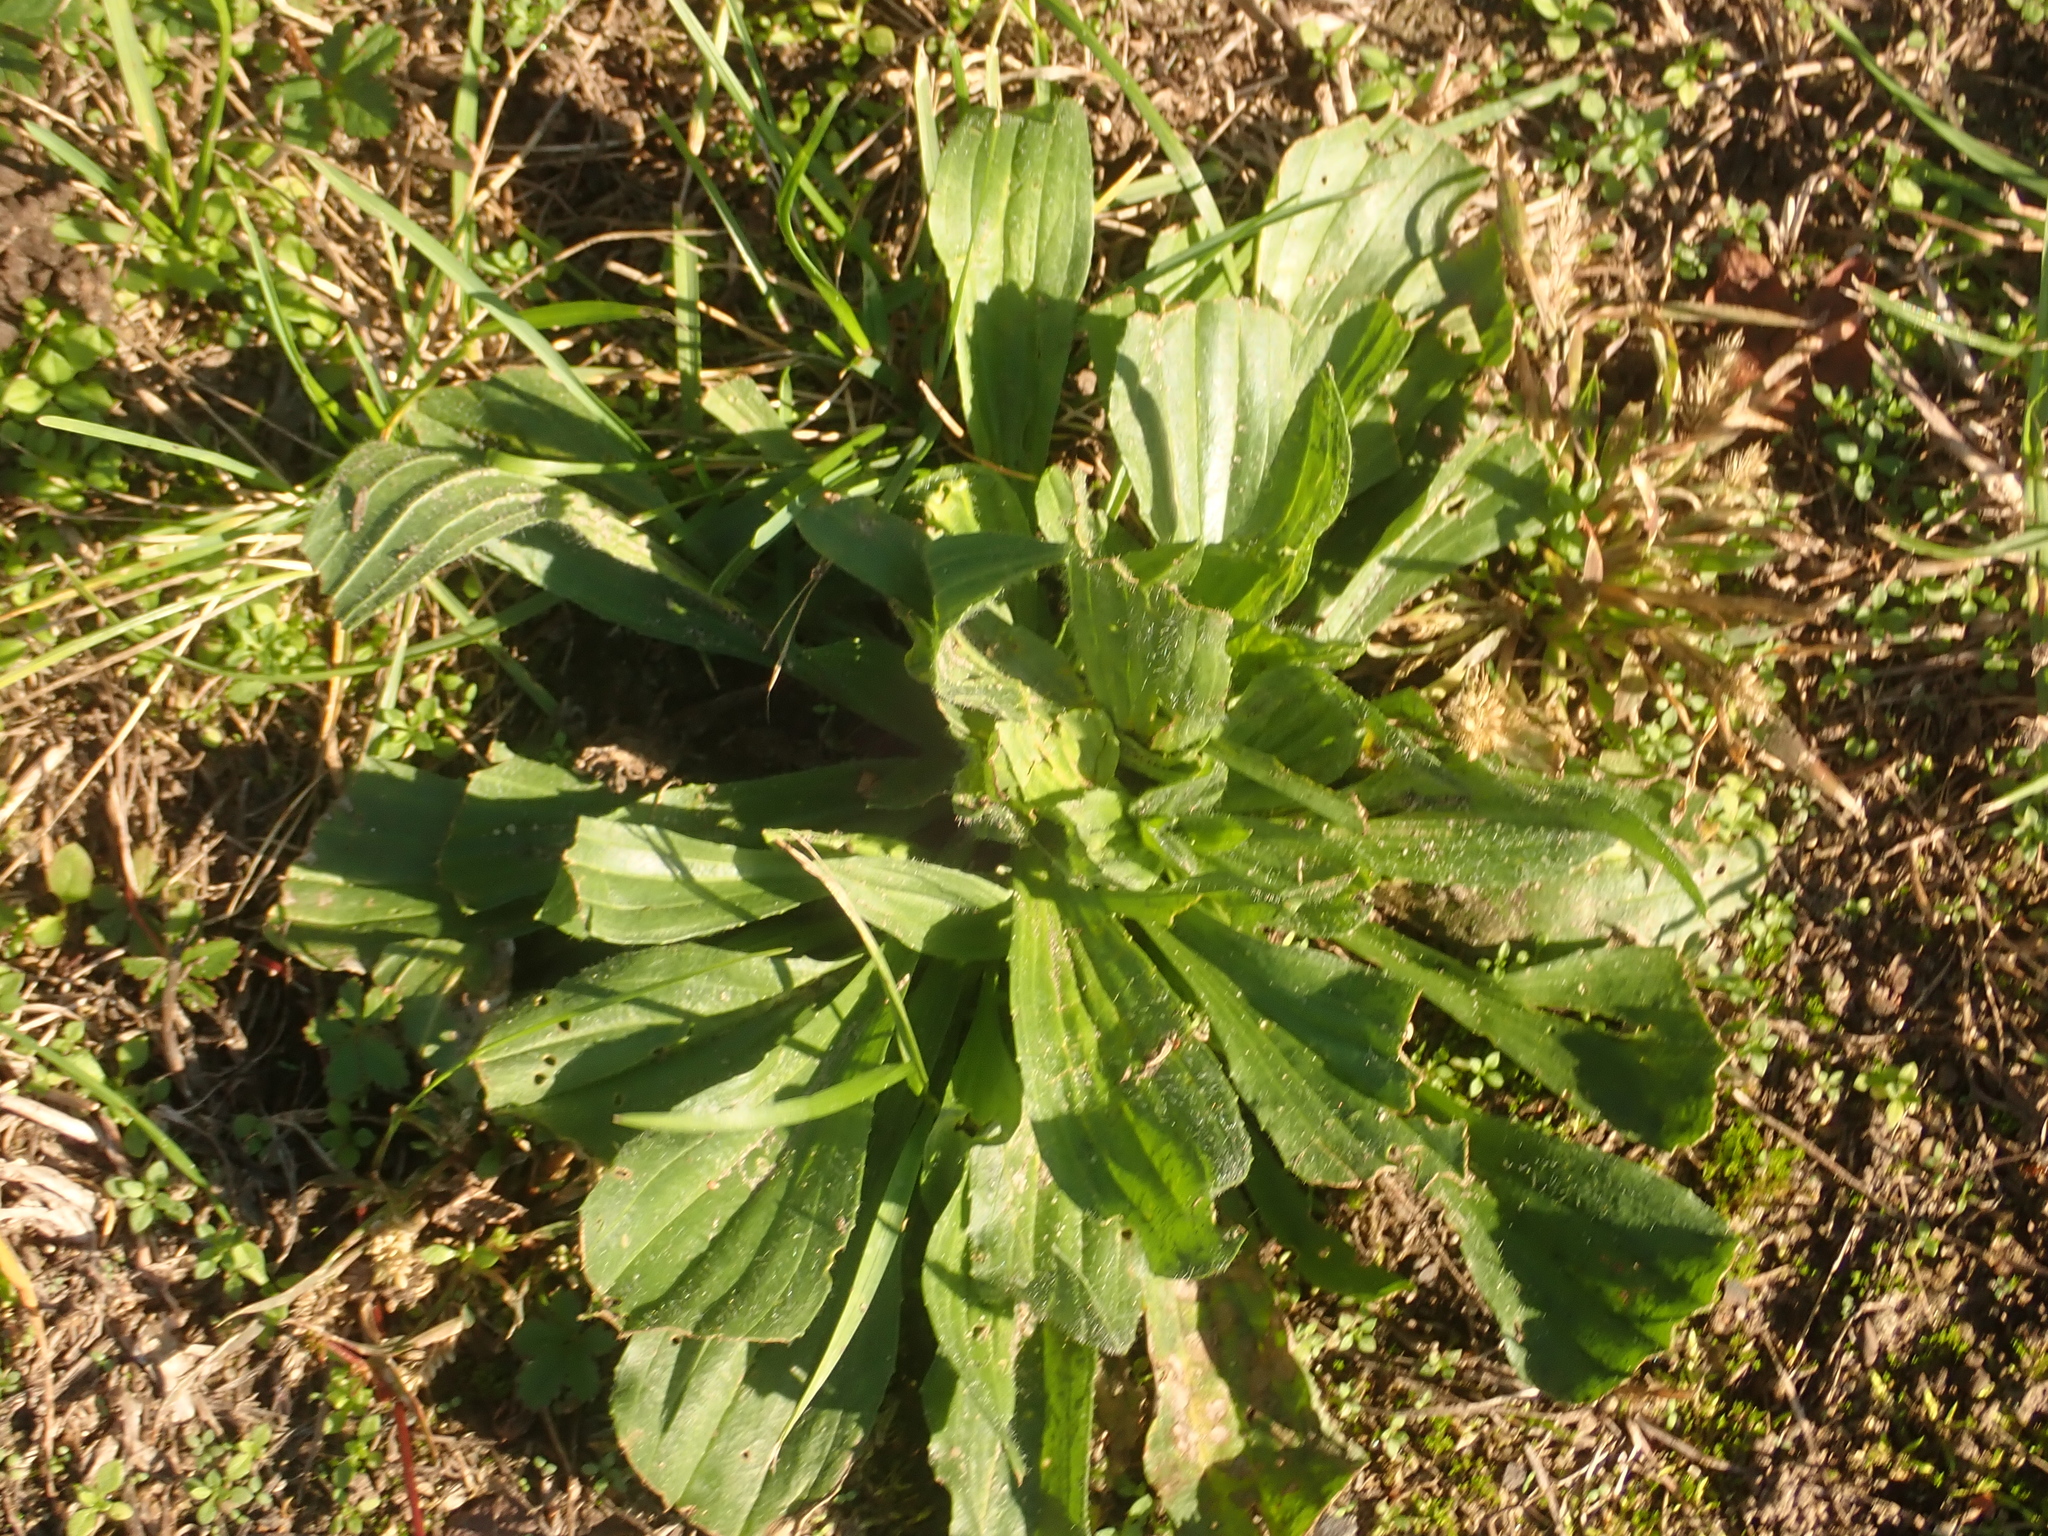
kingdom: Plantae
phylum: Tracheophyta
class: Magnoliopsida
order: Lamiales
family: Plantaginaceae
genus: Plantago
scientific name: Plantago lanceolata
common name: Ribwort plantain
